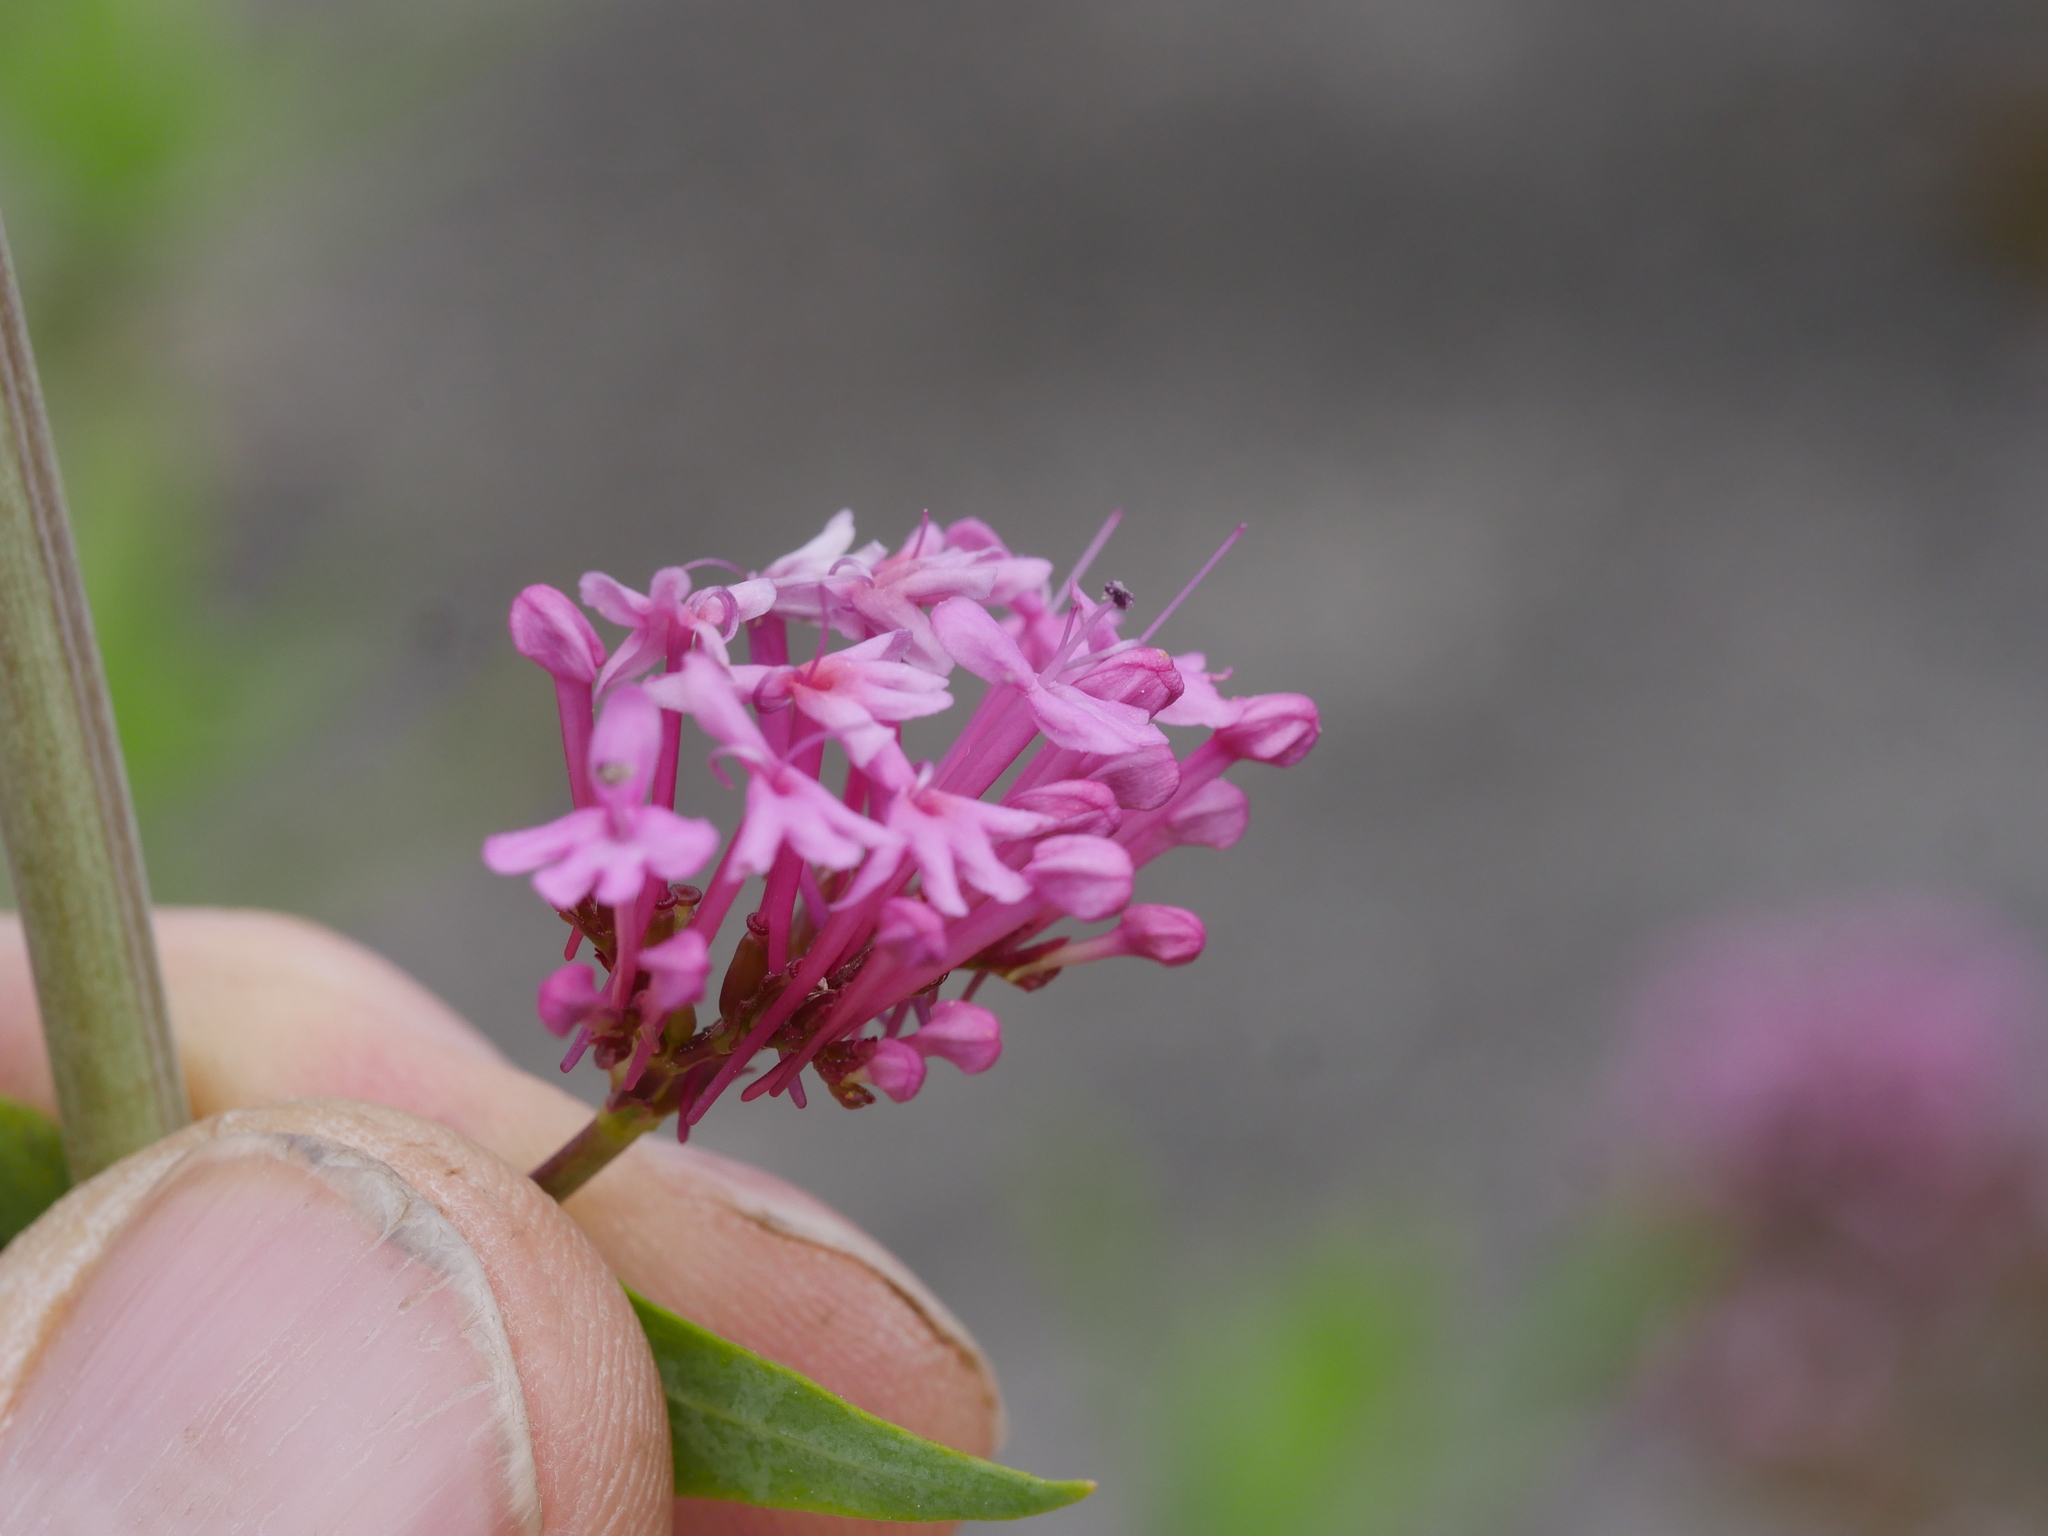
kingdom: Plantae
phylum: Tracheophyta
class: Magnoliopsida
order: Dipsacales
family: Caprifoliaceae
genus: Centranthus
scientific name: Centranthus ruber
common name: Red valerian
